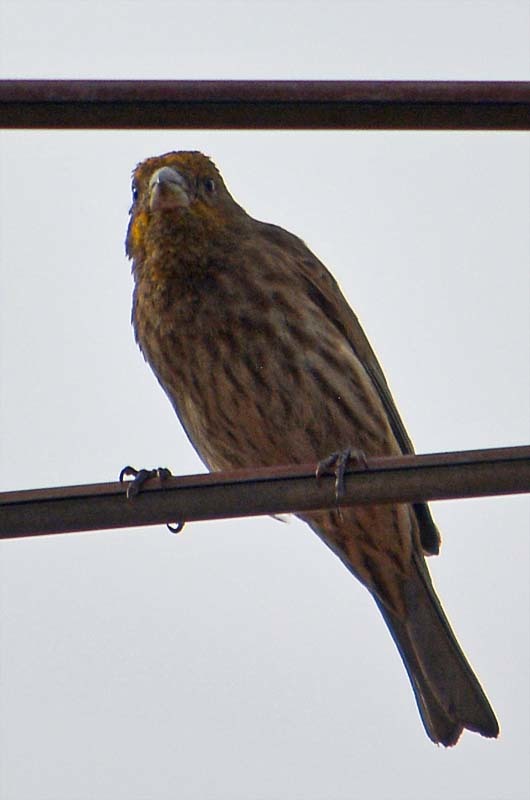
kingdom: Animalia
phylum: Chordata
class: Aves
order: Passeriformes
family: Fringillidae
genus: Haemorhous
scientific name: Haemorhous mexicanus
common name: House finch
